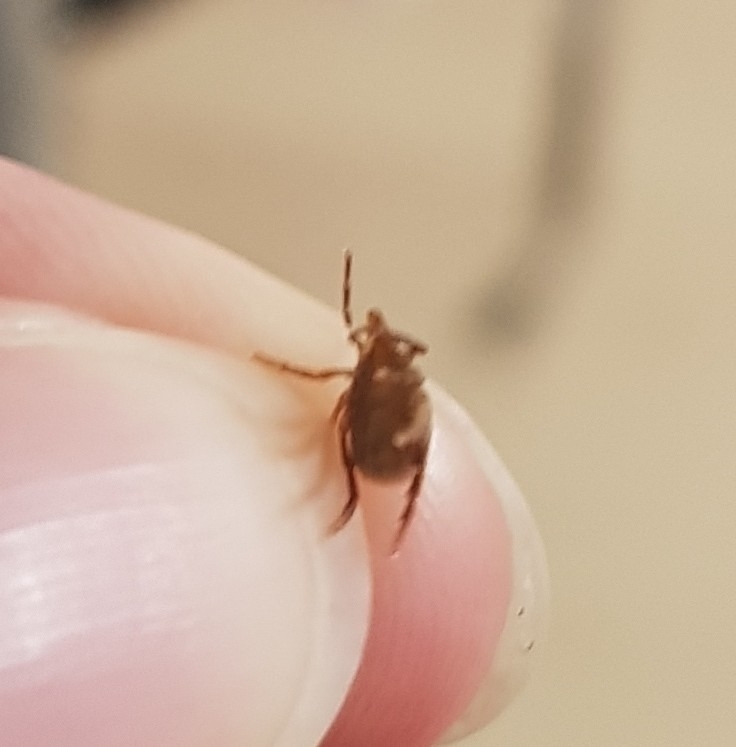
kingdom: Animalia
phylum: Arthropoda
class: Arachnida
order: Ixodida
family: Ixodidae
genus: Ixodes
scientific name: Ixodes holocyclus
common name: Australian paralysis tick
